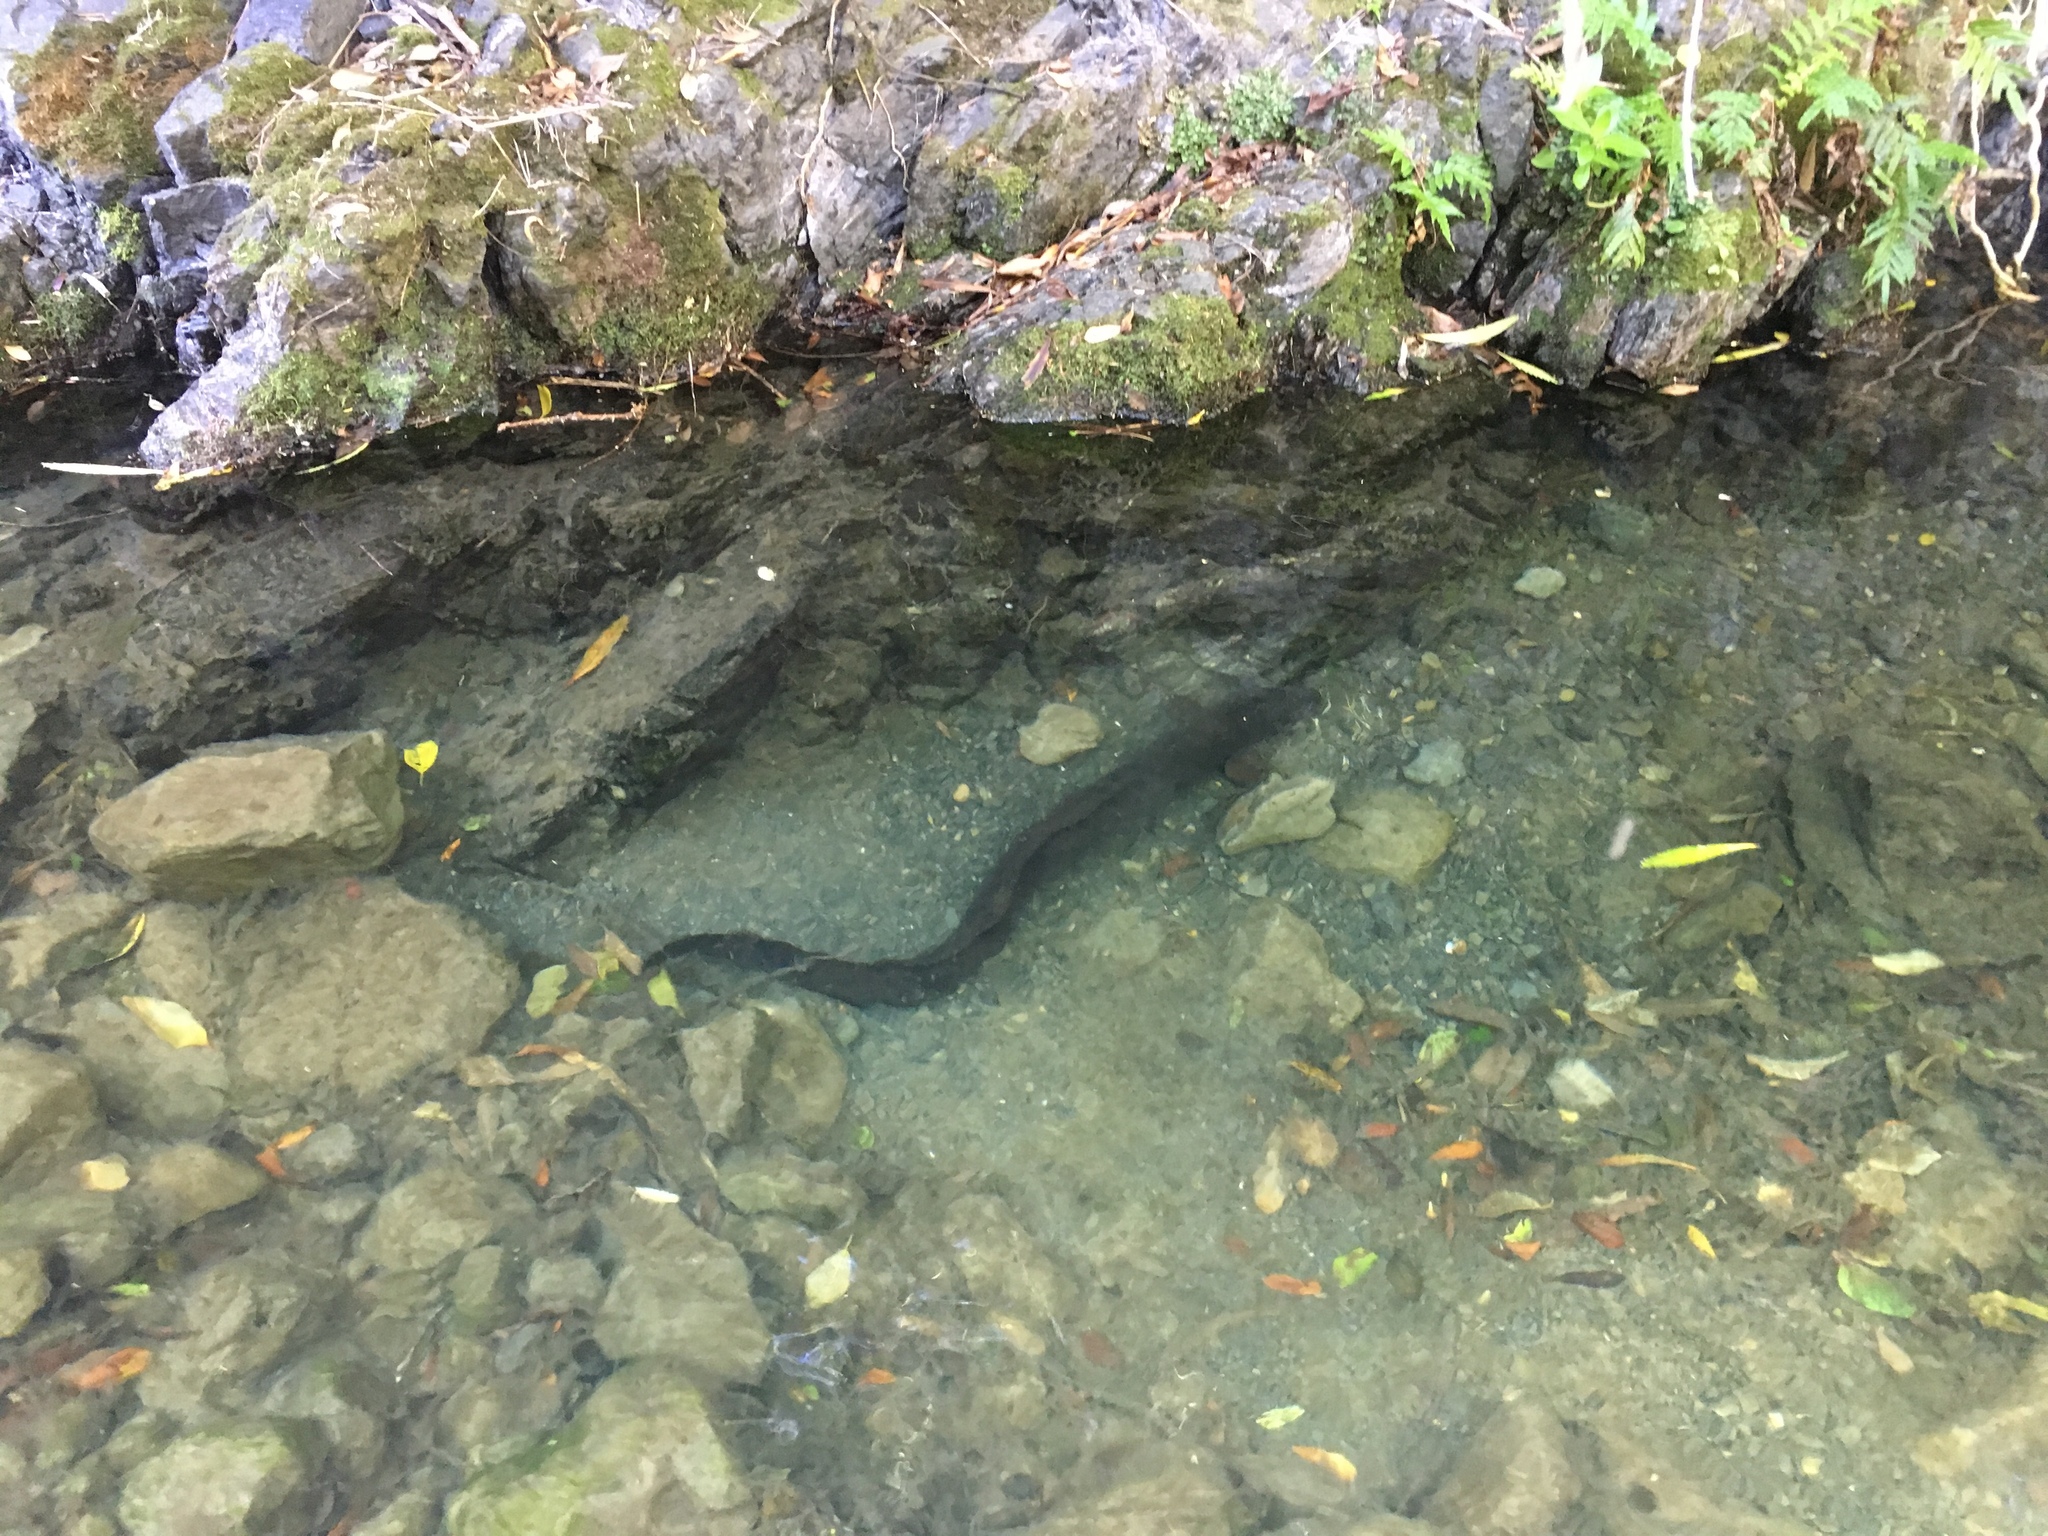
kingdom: Animalia
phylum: Chordata
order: Anguilliformes
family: Anguillidae
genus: Anguilla
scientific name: Anguilla dieffenbachii
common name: New zealand longfin eel
